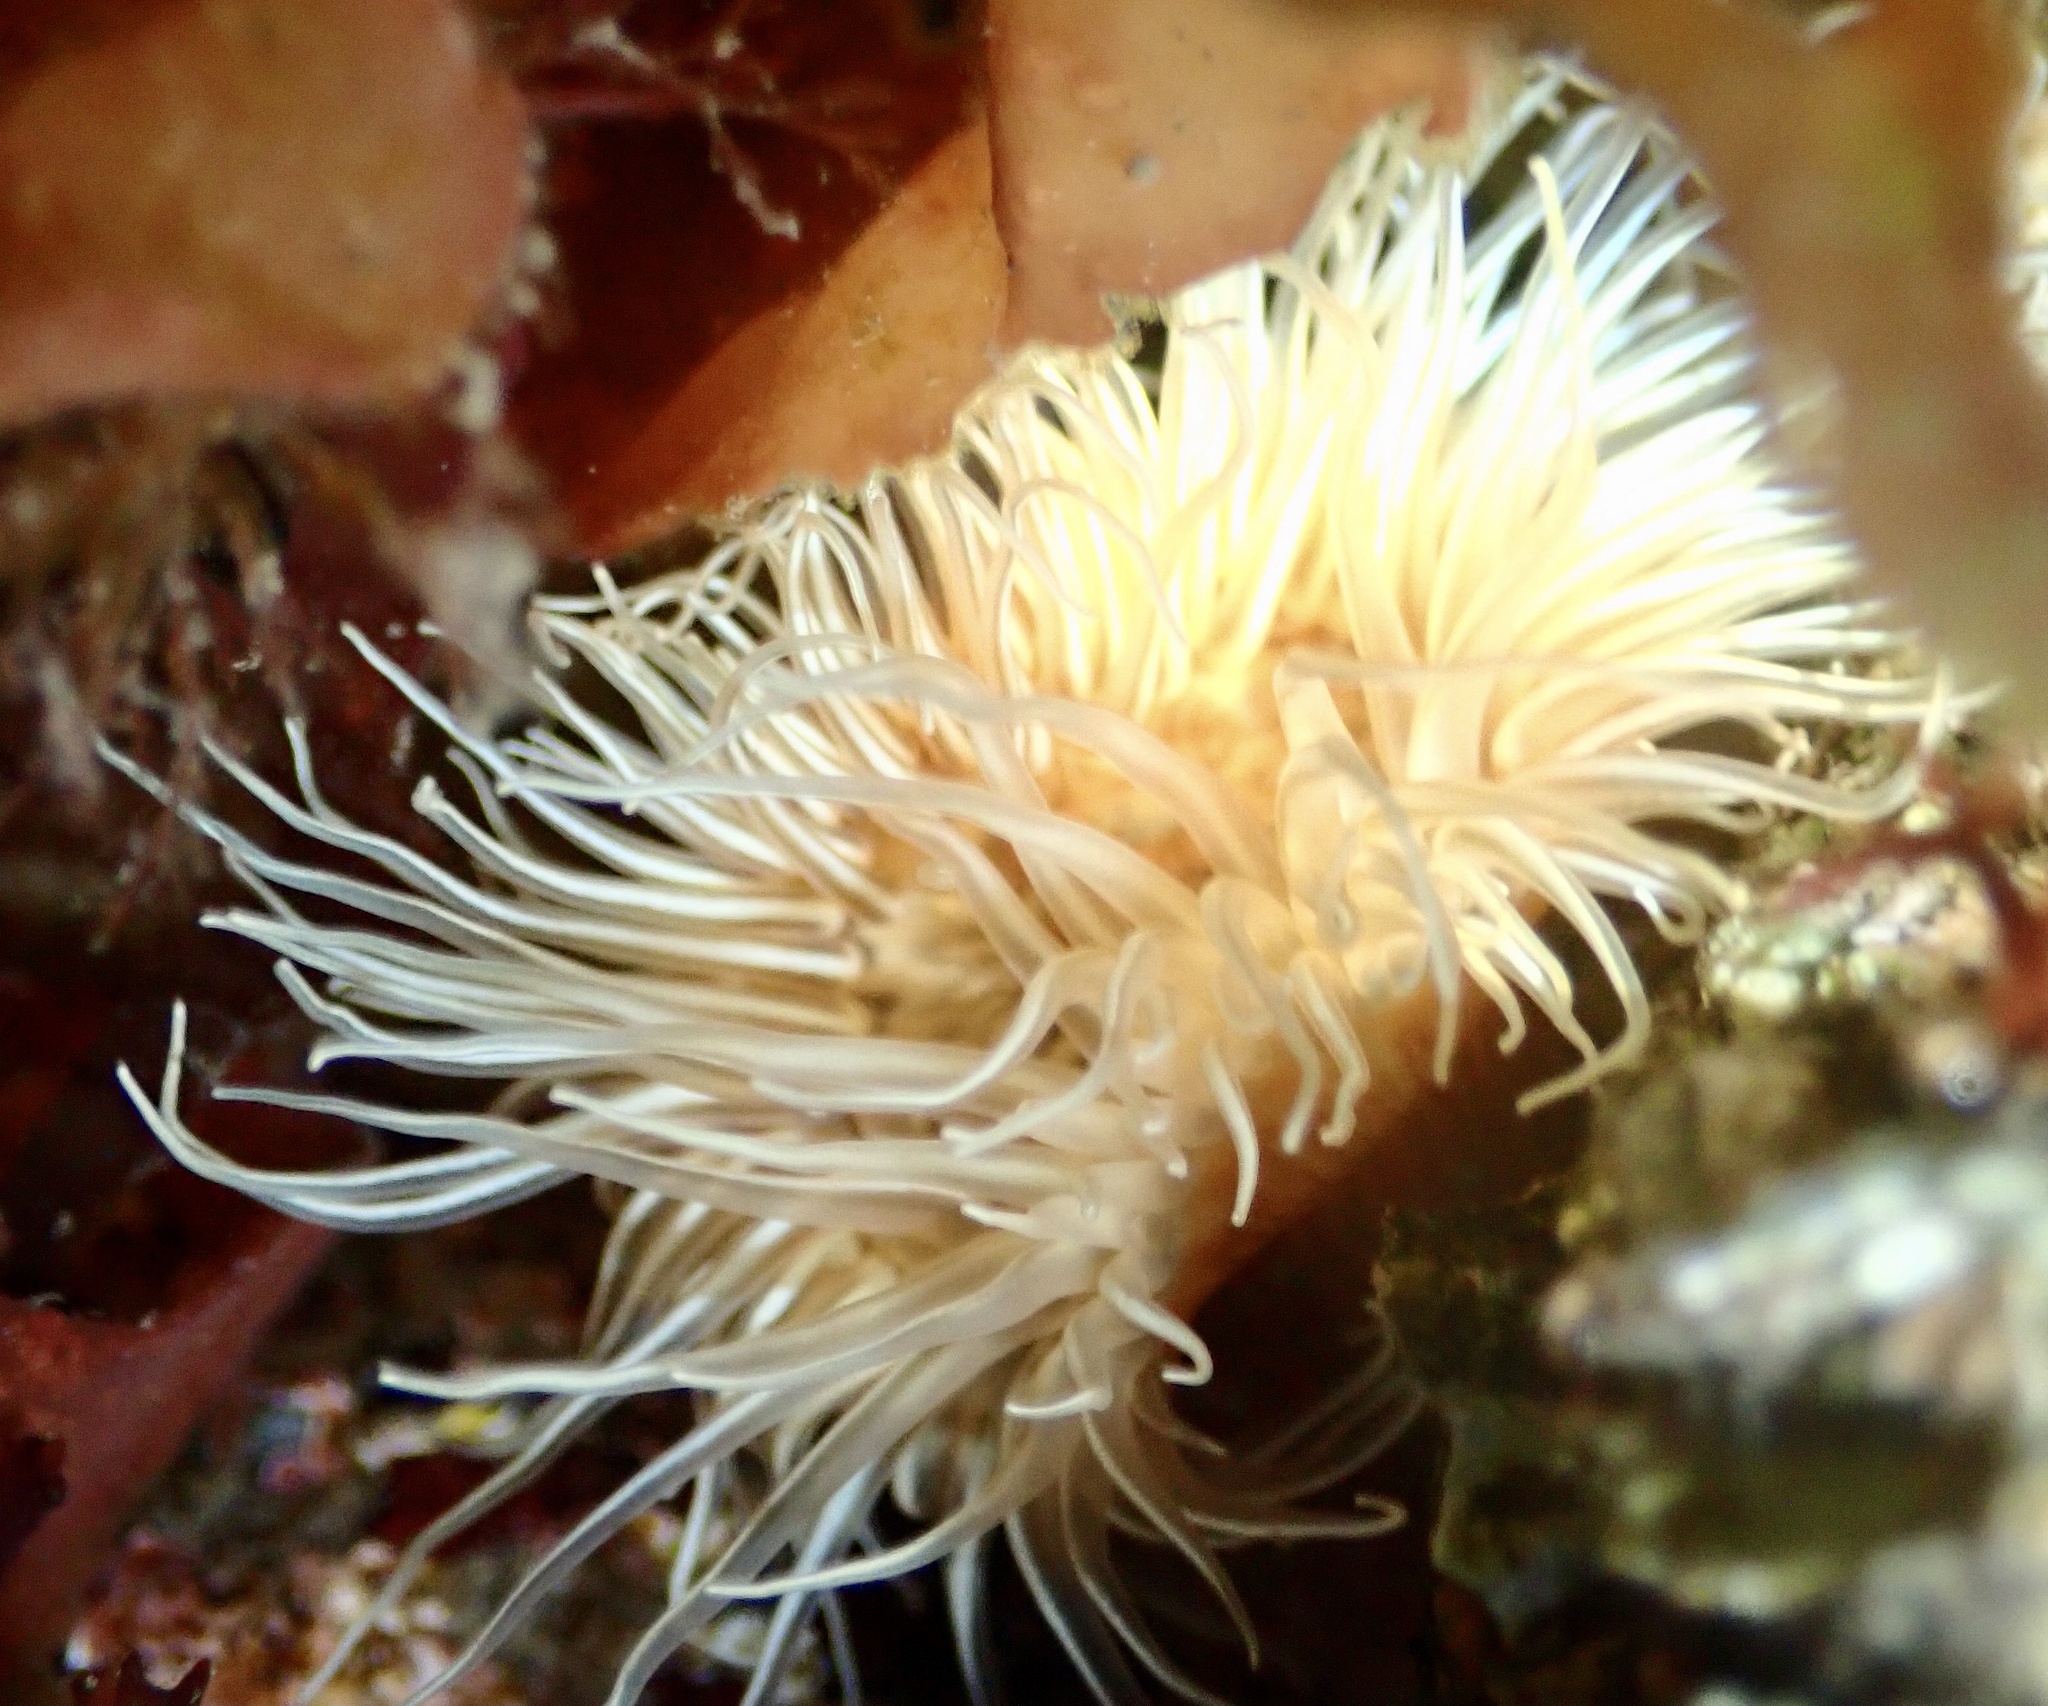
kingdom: Animalia
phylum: Cnidaria
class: Anthozoa
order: Actiniaria
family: Sagartiidae
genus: Sagartia
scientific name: Sagartia undata
